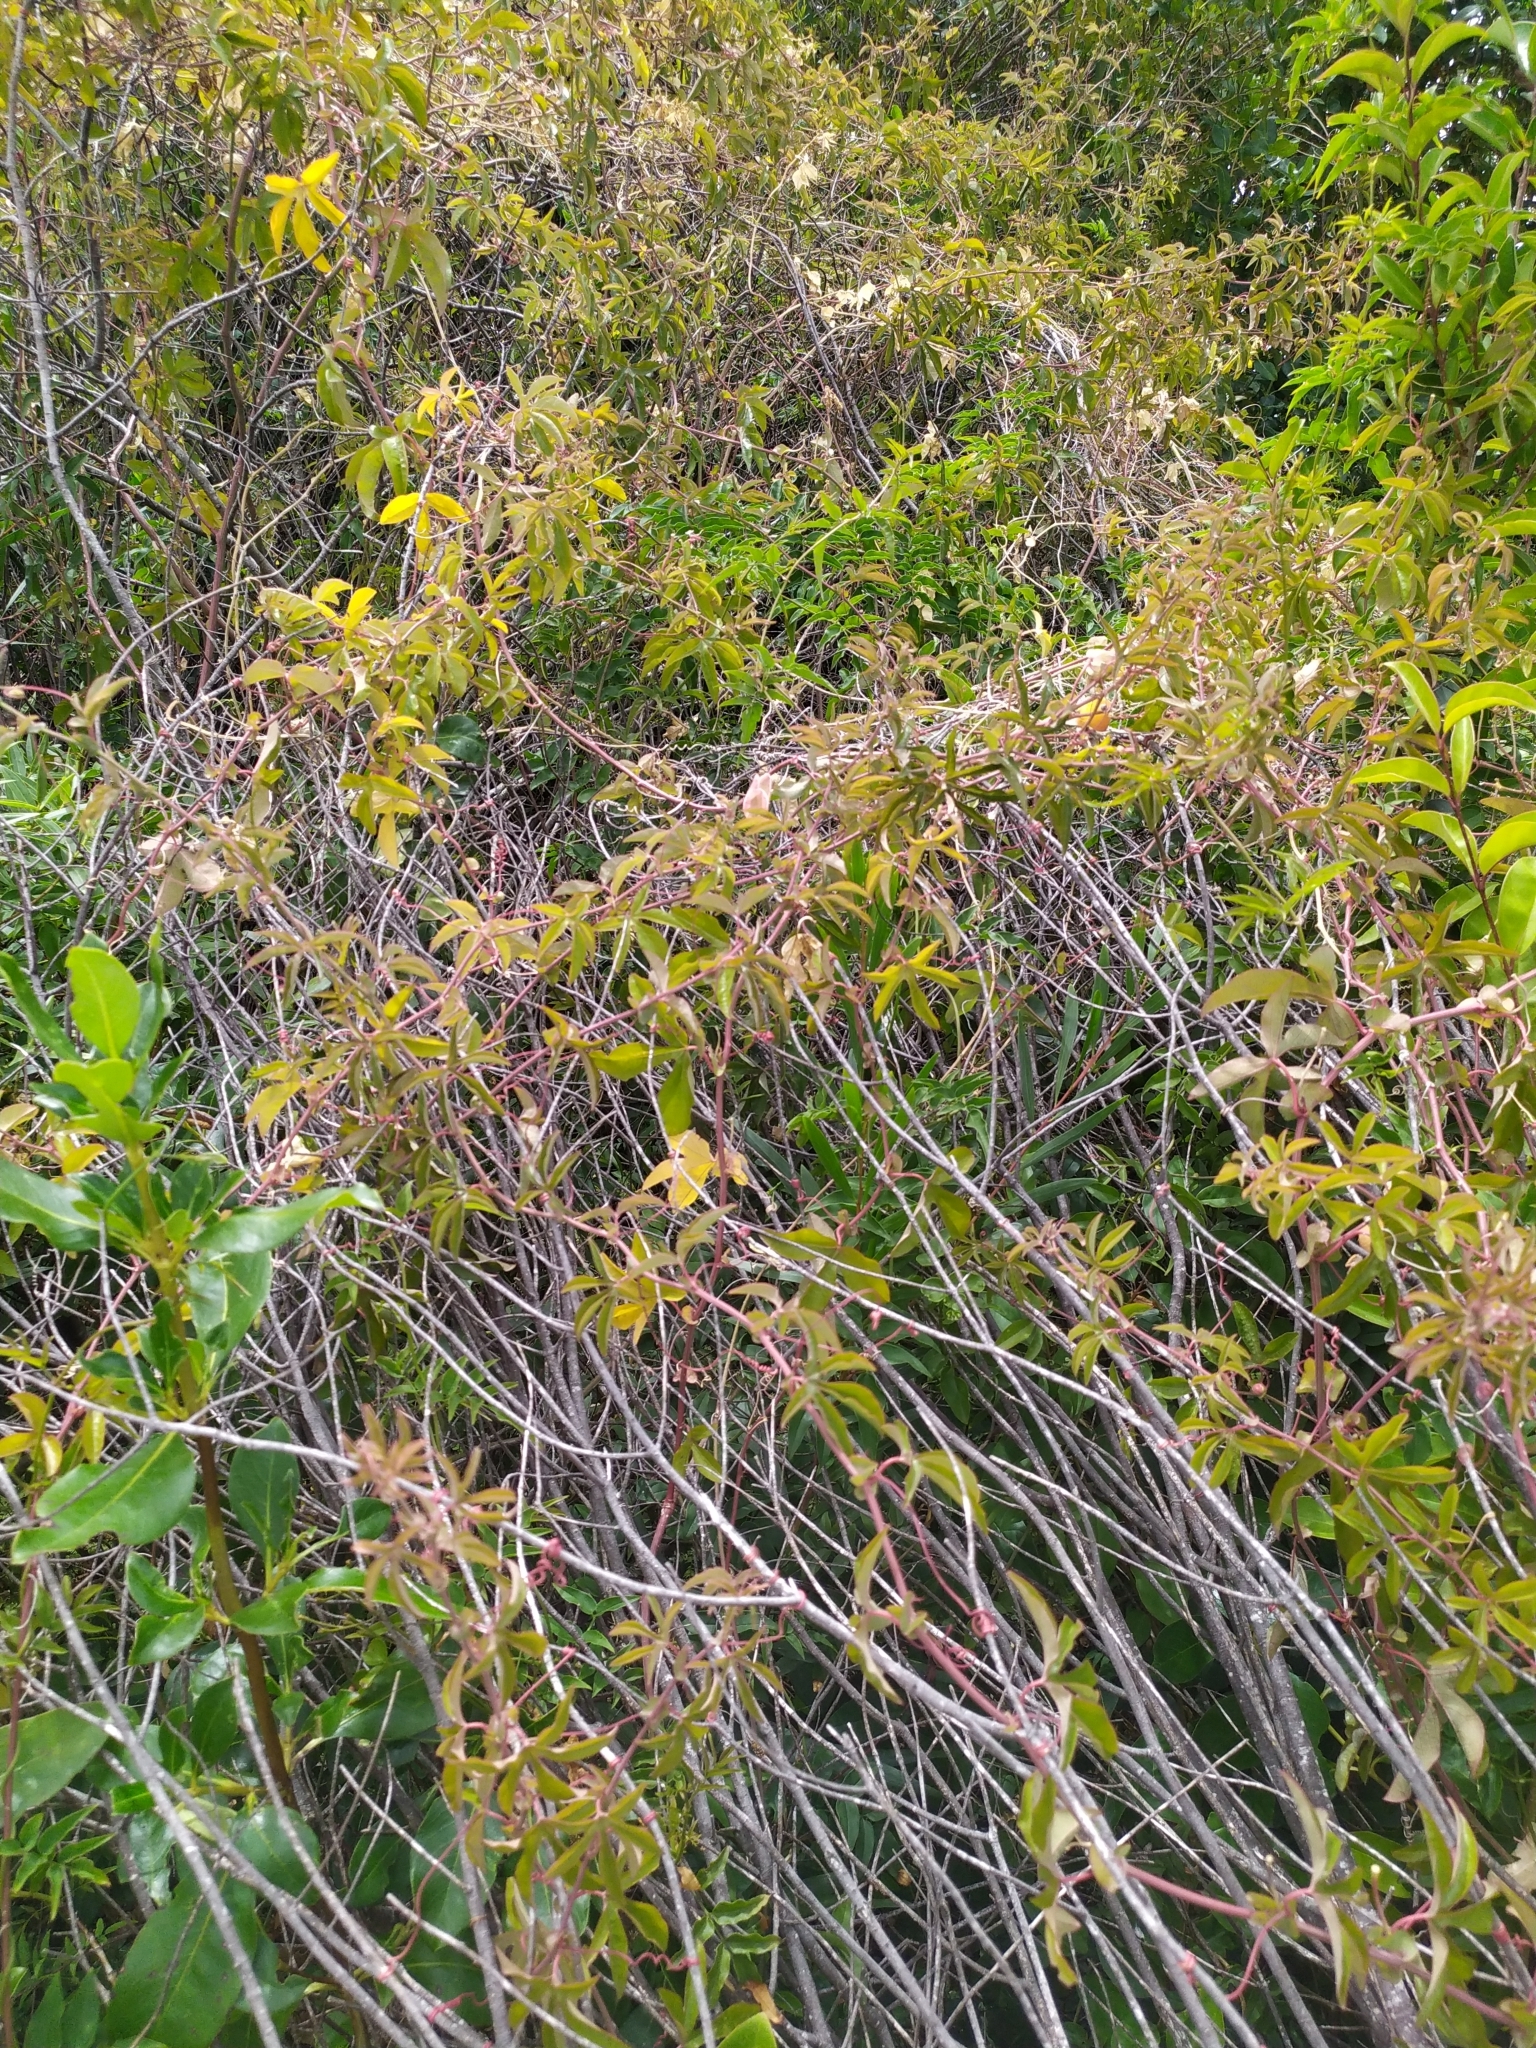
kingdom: Plantae
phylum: Tracheophyta
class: Magnoliopsida
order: Malpighiales
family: Passifloraceae
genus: Passiflora
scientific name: Passiflora caerulea
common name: Blue passionflower
